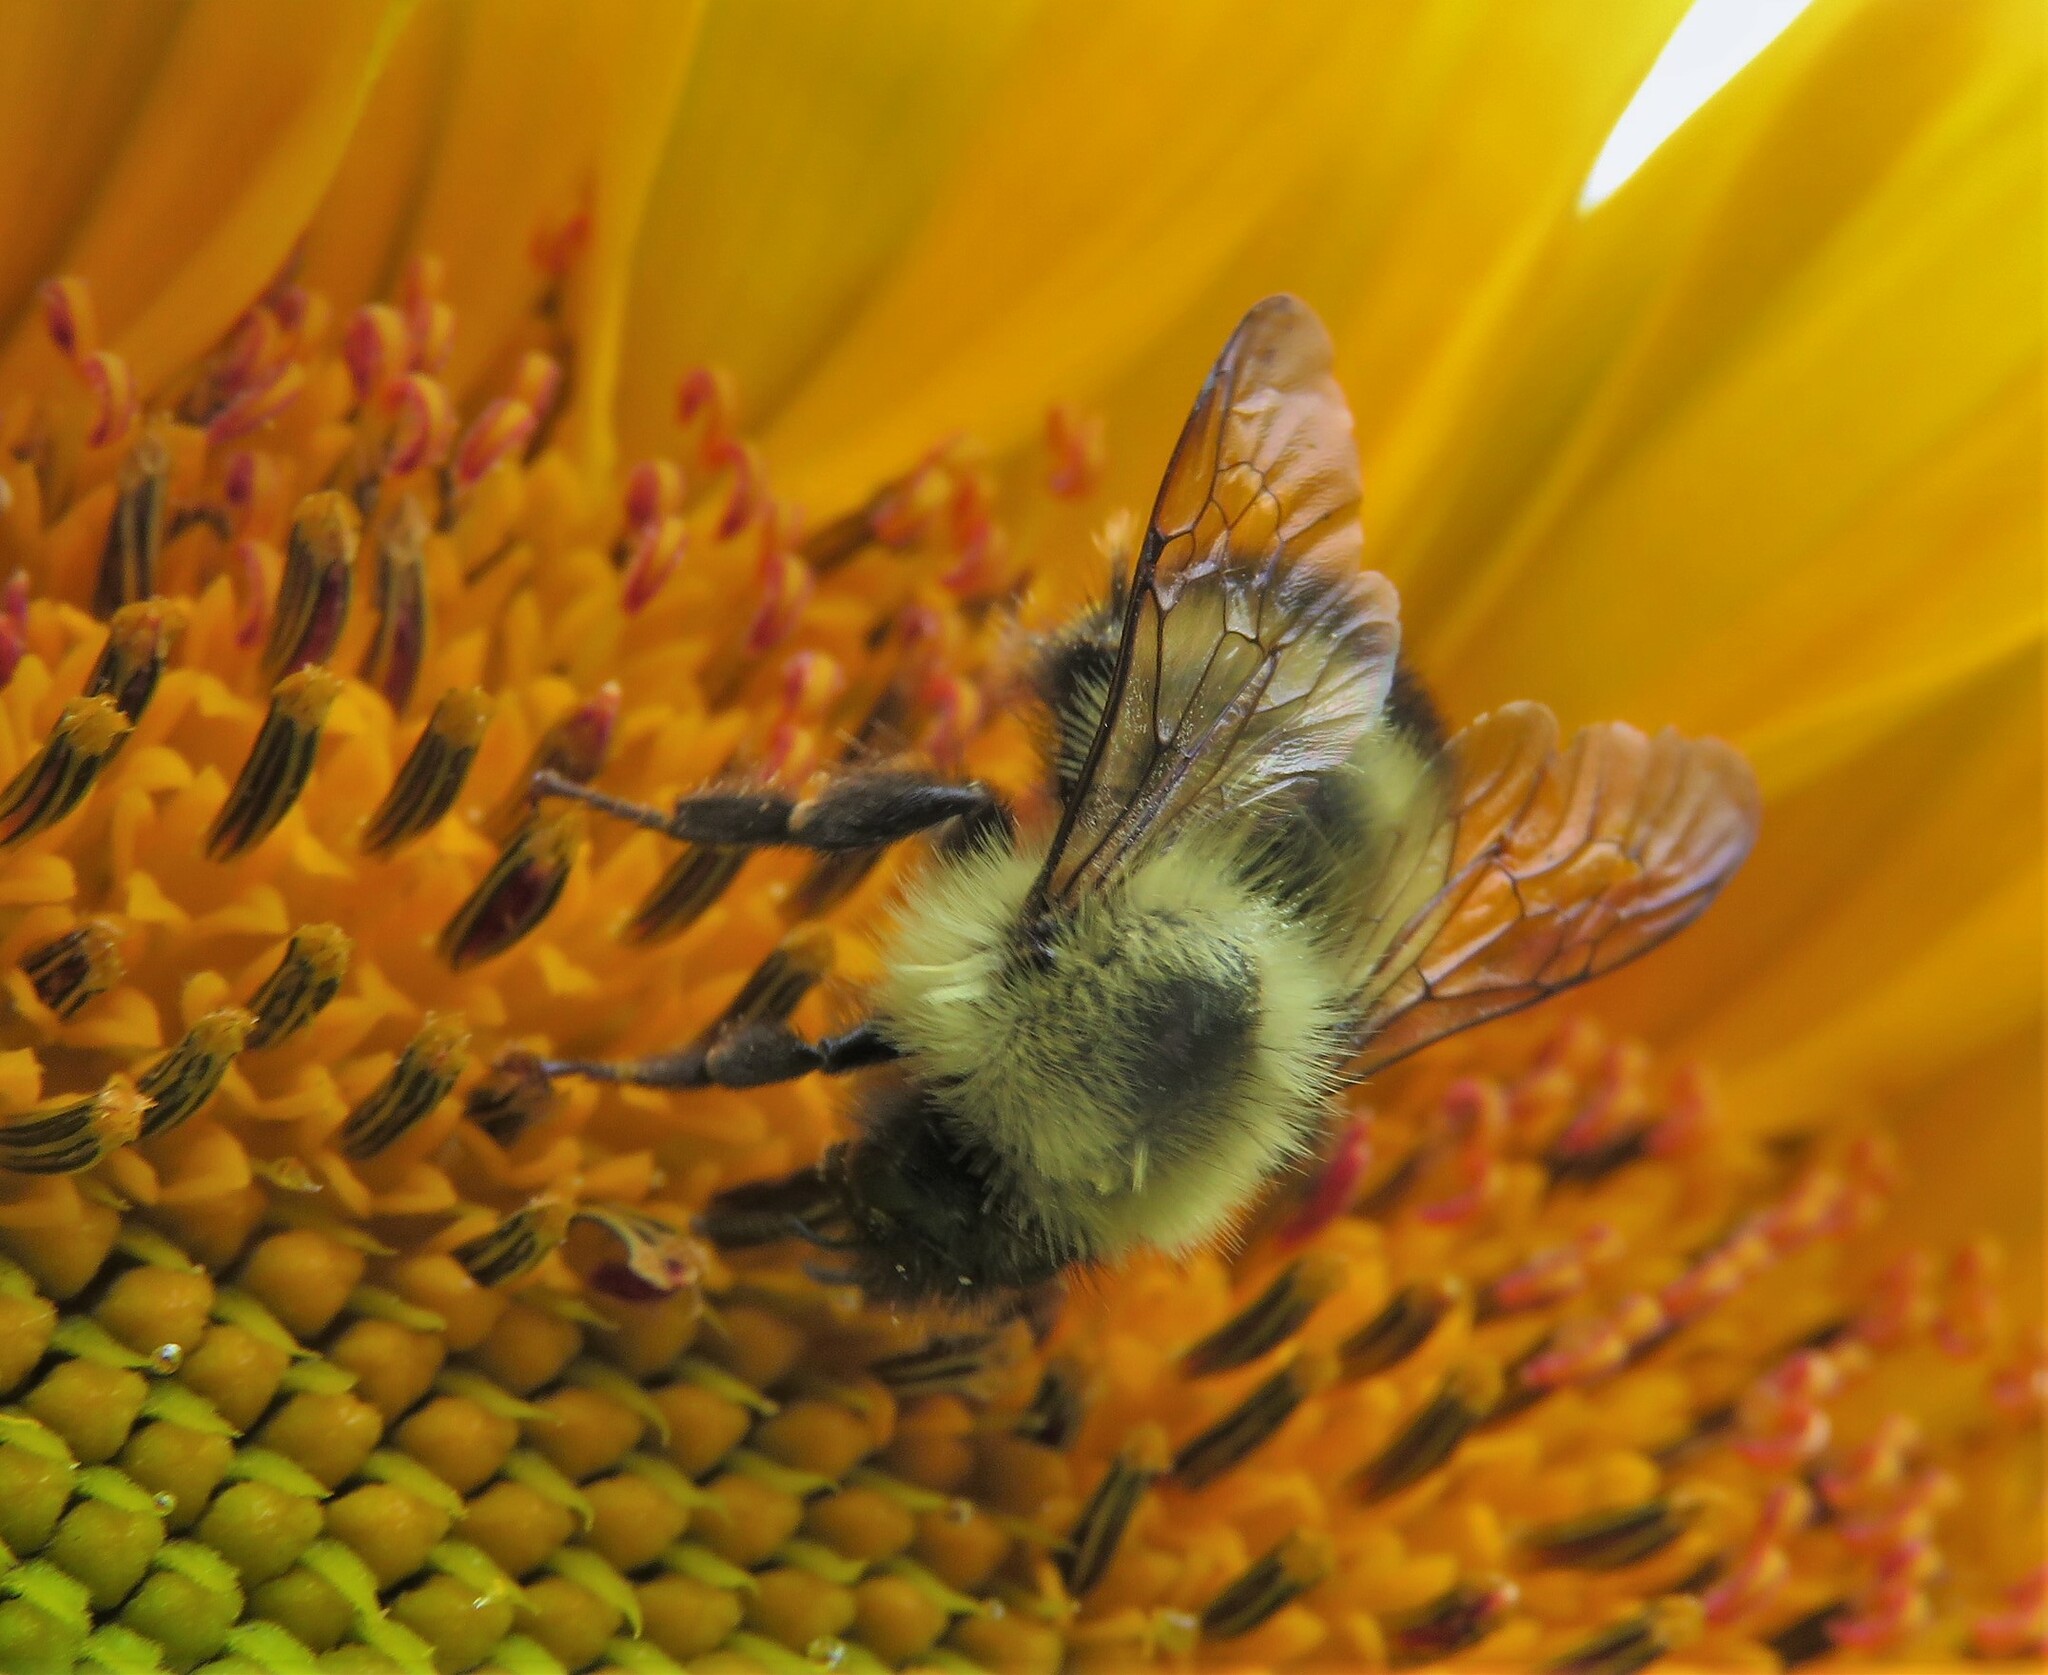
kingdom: Animalia
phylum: Arthropoda
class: Insecta
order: Hymenoptera
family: Apidae
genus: Bombus
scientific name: Bombus vagans
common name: Half-black bumble bee
